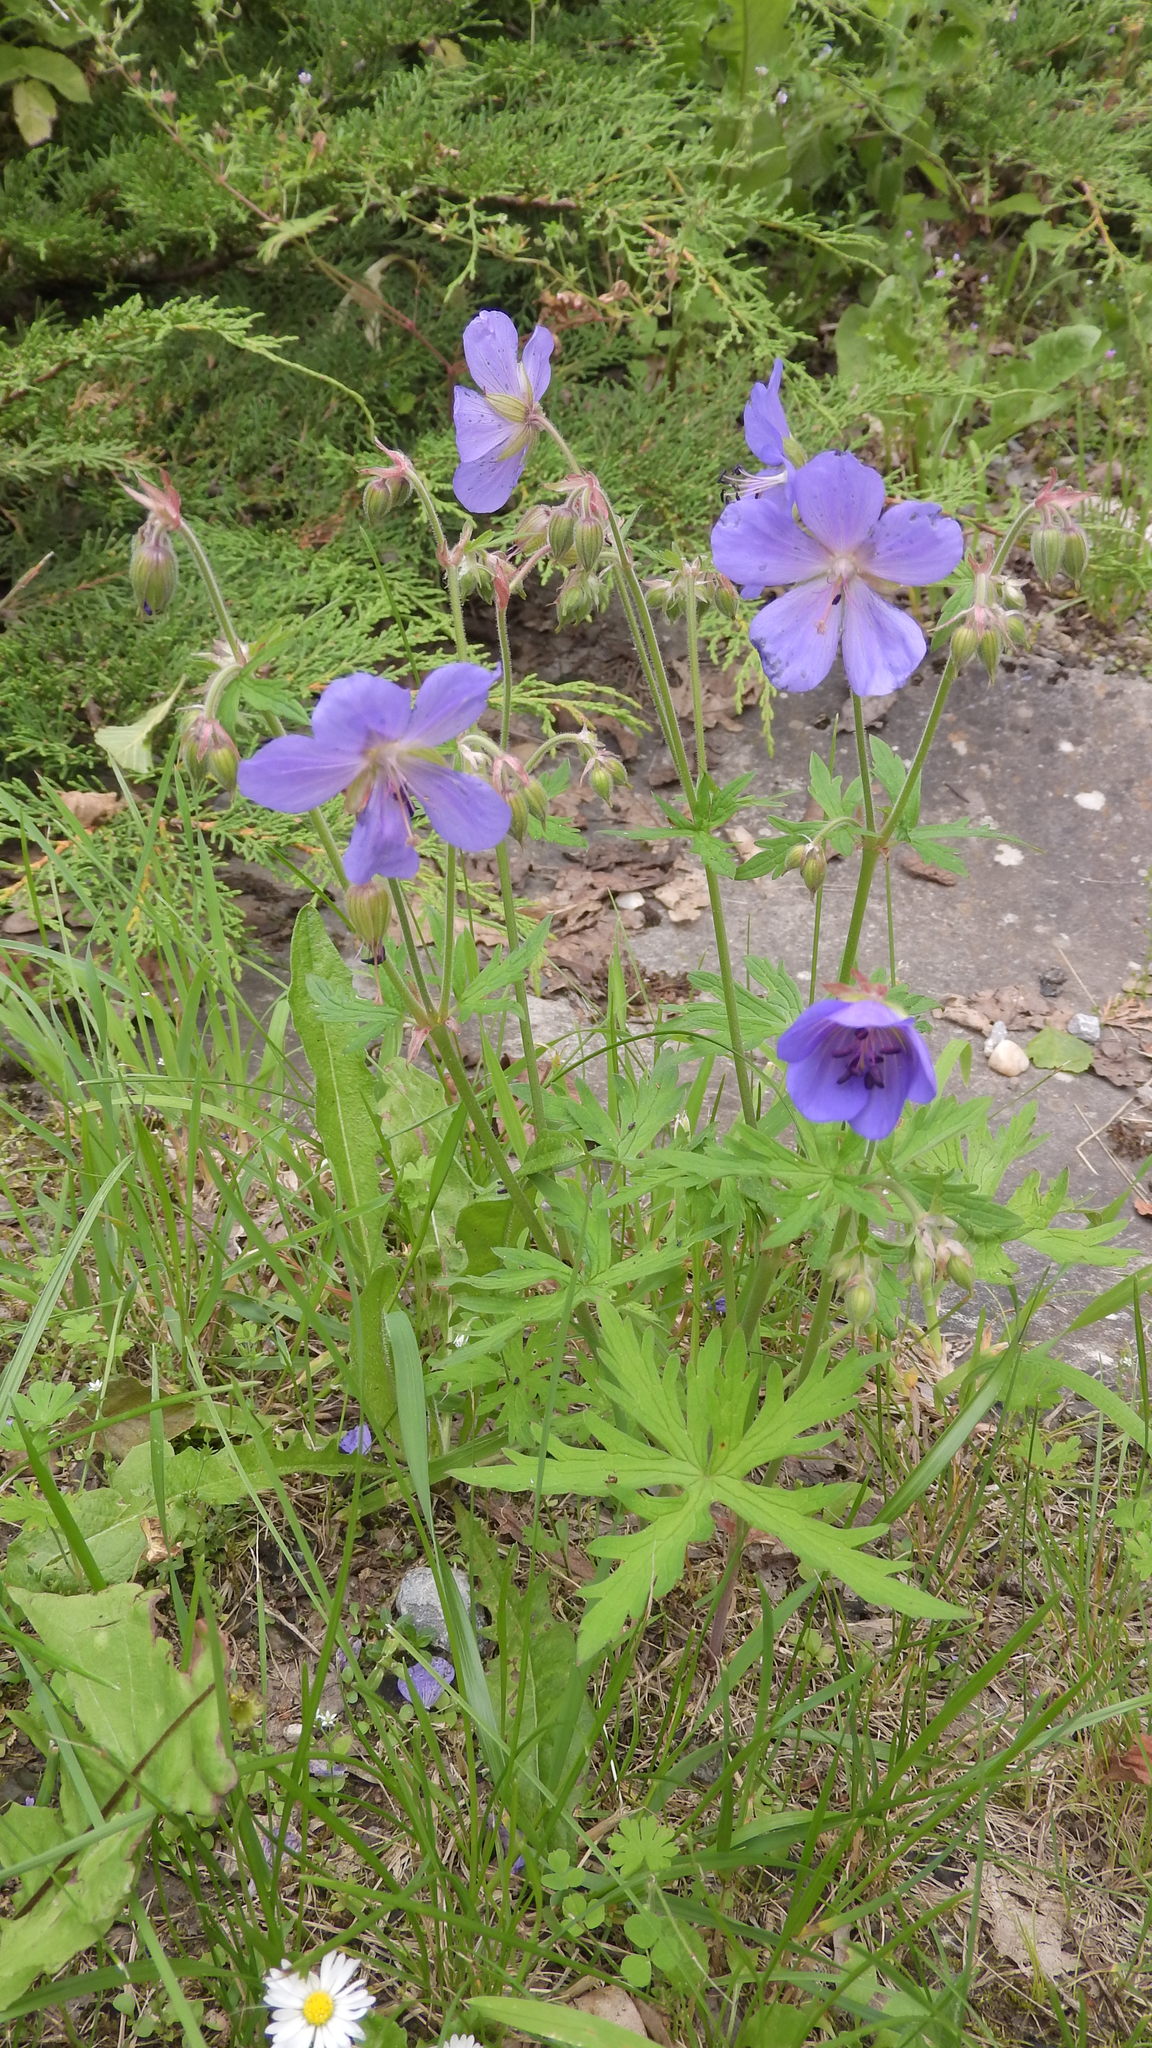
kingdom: Plantae
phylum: Tracheophyta
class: Magnoliopsida
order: Geraniales
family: Geraniaceae
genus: Geranium
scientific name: Geranium pratense
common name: Meadow crane's-bill
